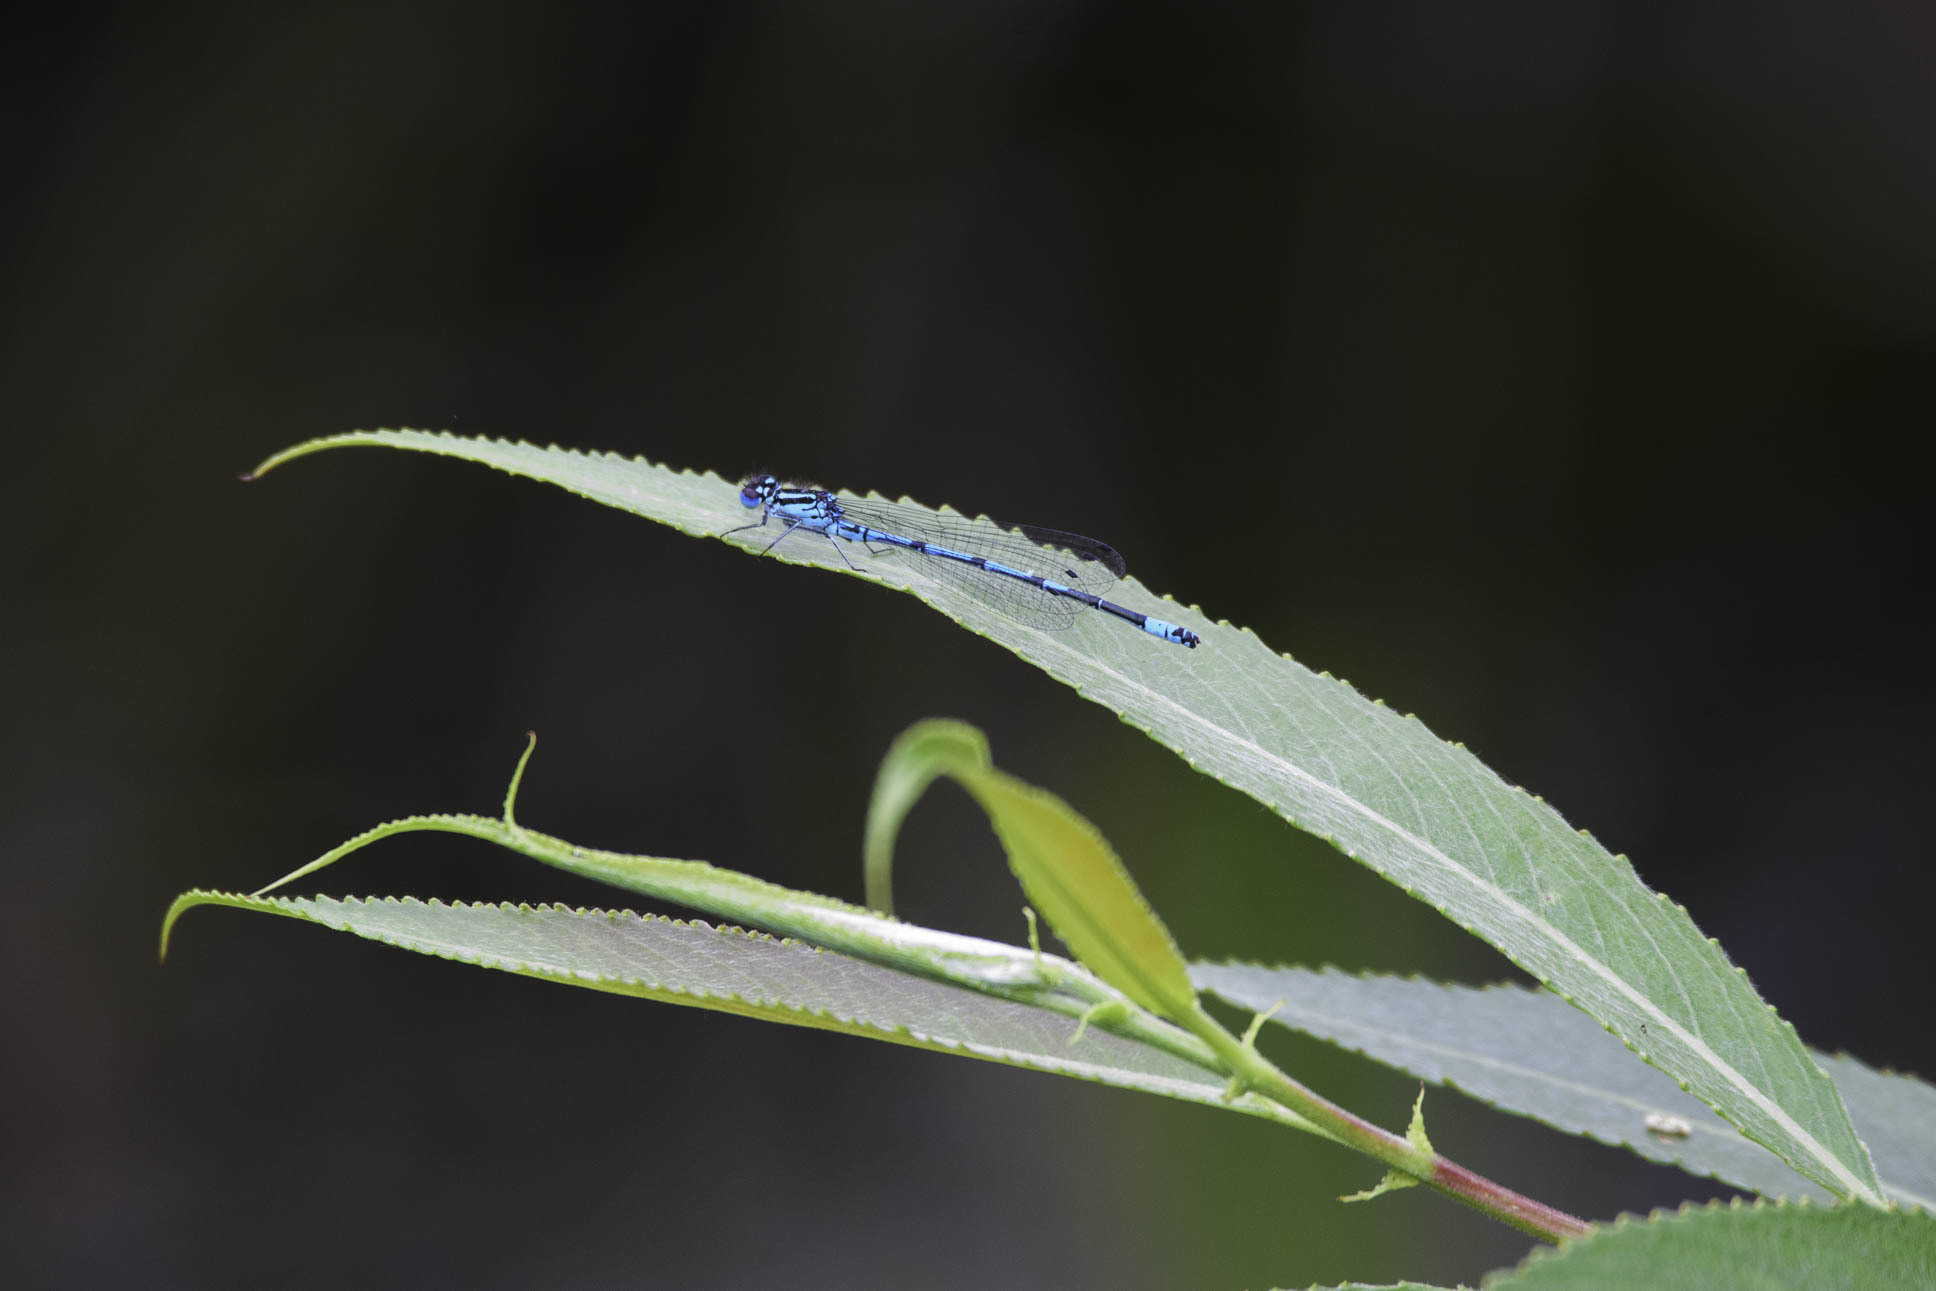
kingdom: Animalia
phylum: Arthropoda
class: Insecta
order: Odonata
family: Coenagrionidae
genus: Coenagrion
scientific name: Coenagrion puella
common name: Azure damselfly
